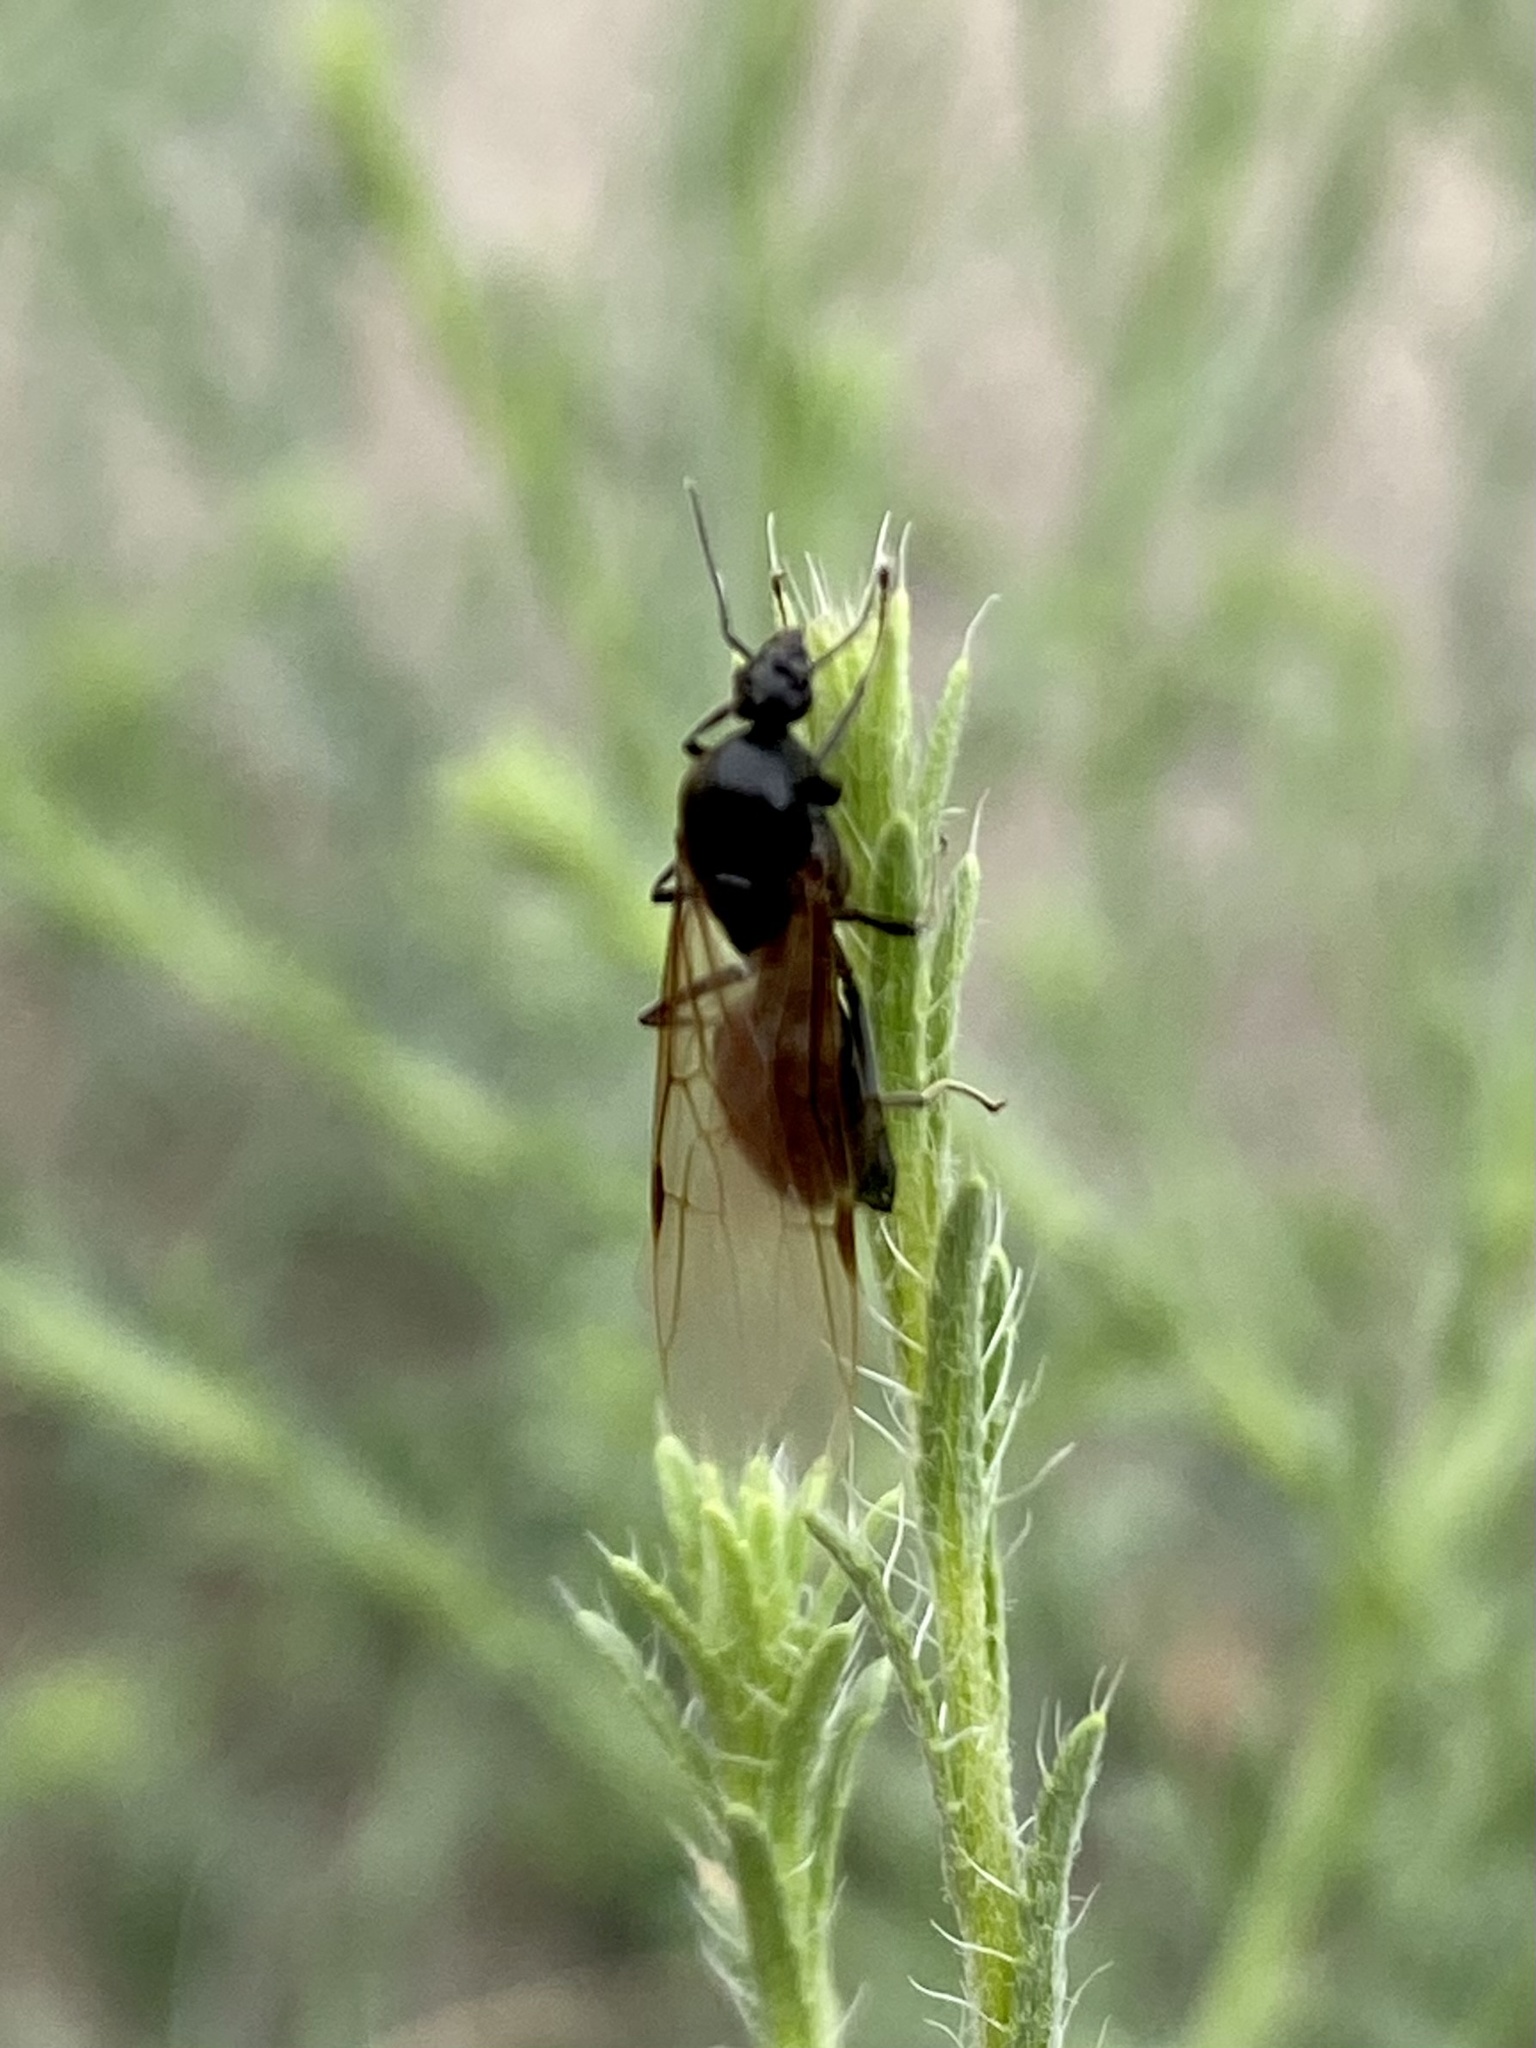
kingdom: Animalia
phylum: Arthropoda
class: Insecta
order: Hymenoptera
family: Formicidae
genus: Liometopum
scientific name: Liometopum apiculatum
